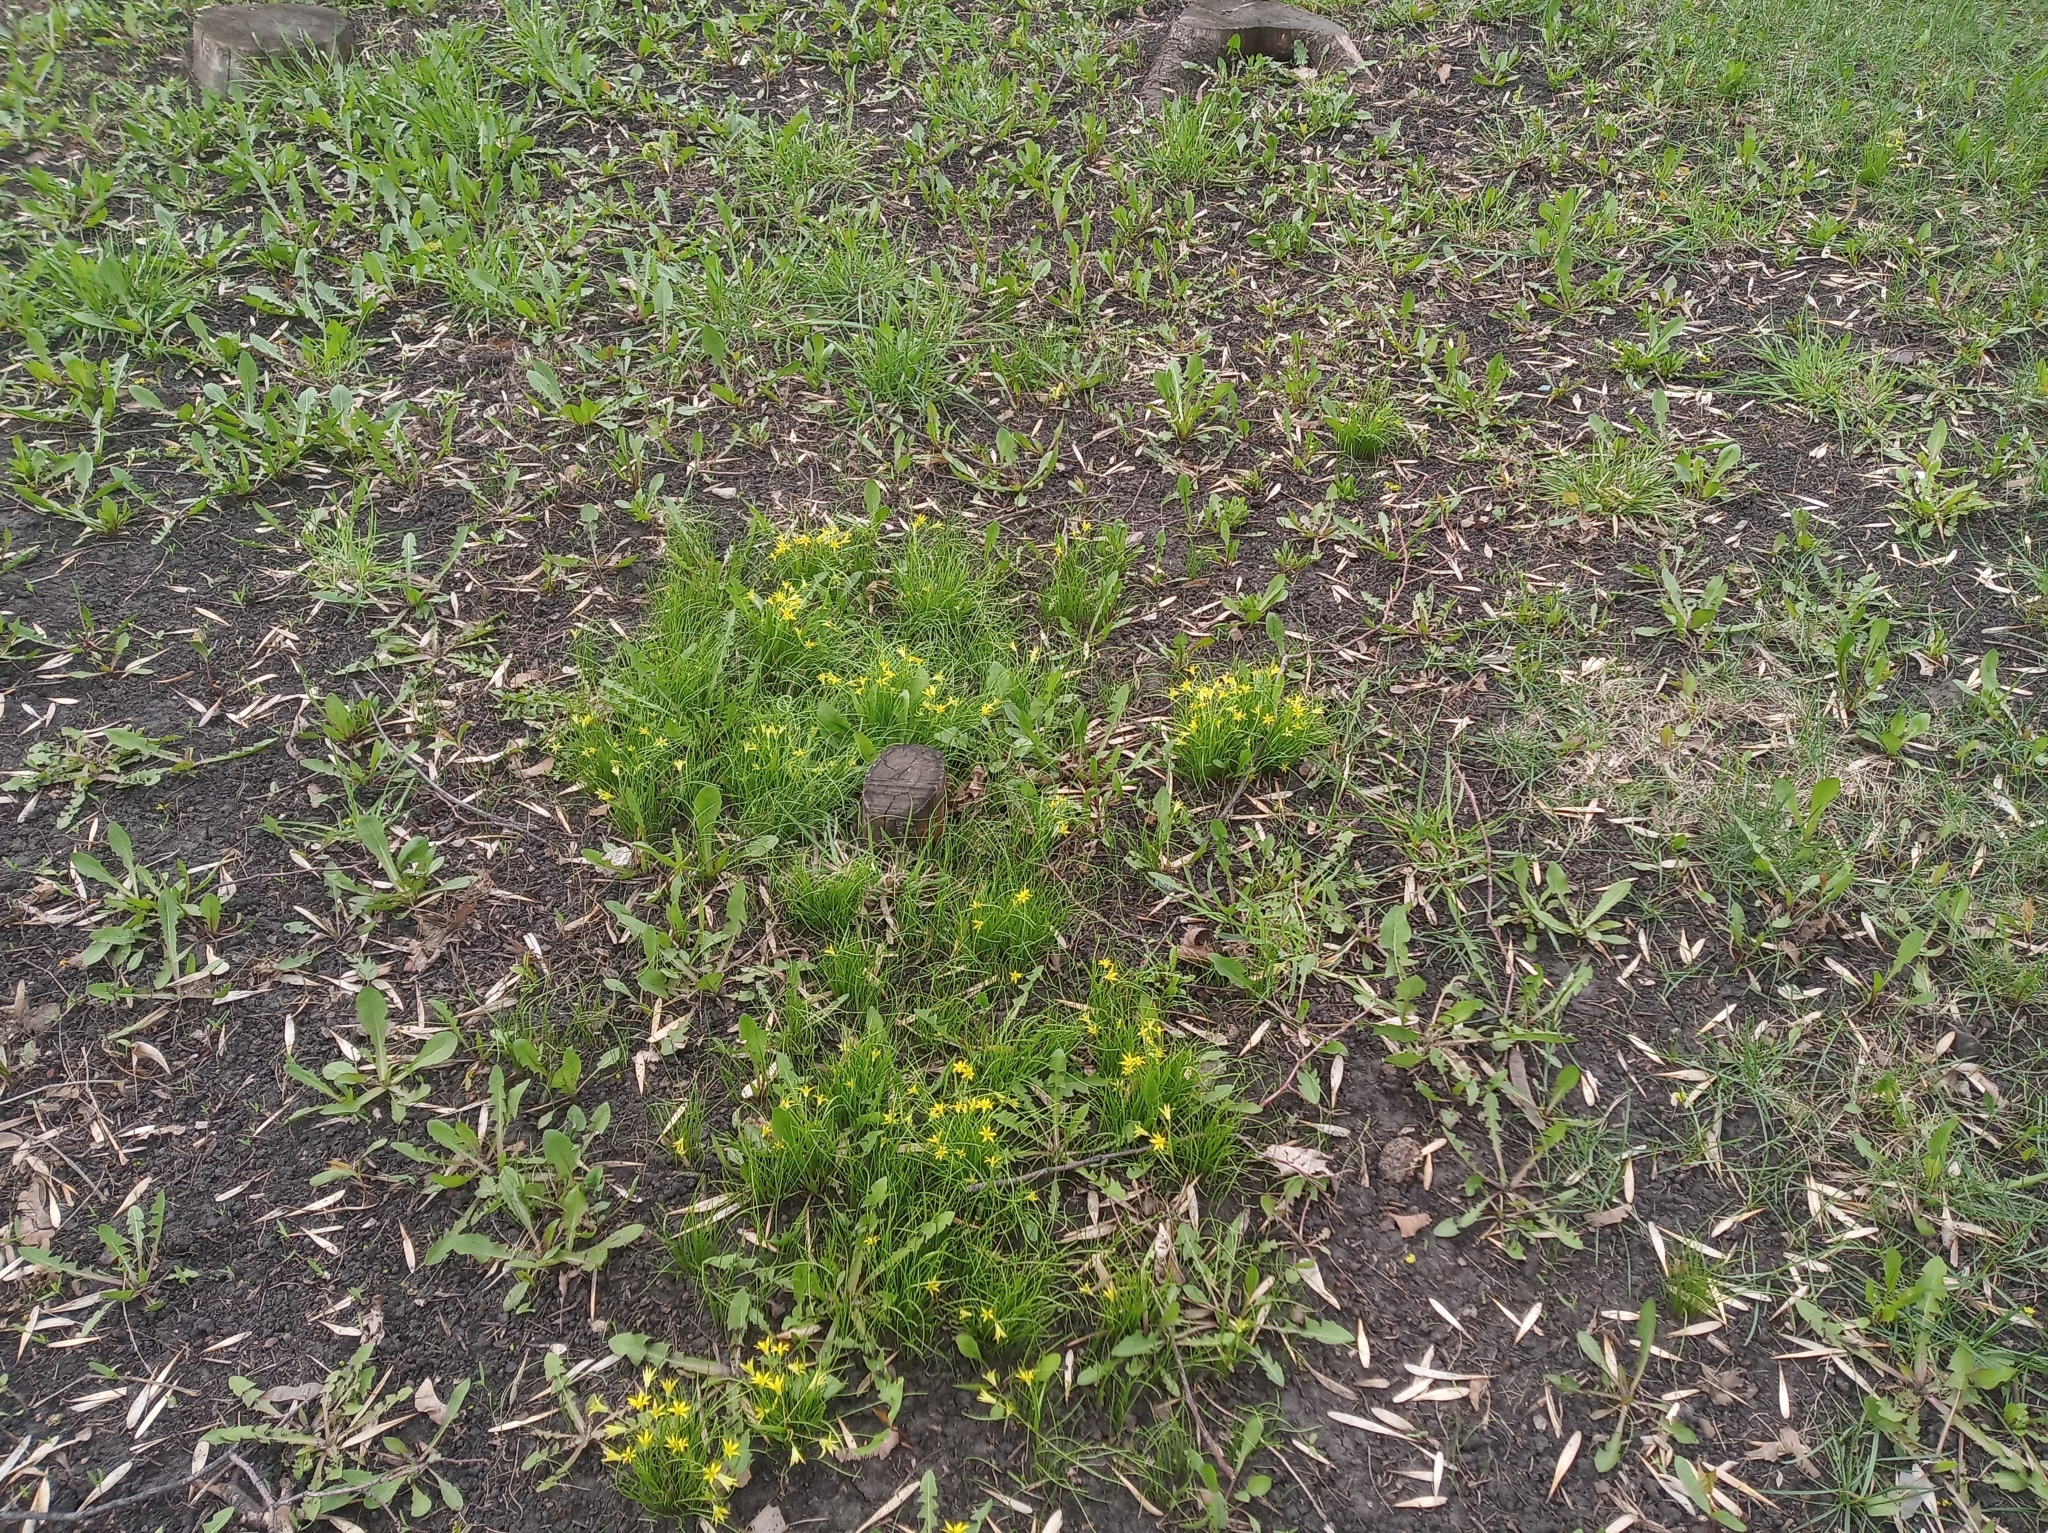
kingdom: Plantae
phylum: Tracheophyta
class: Liliopsida
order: Liliales
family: Liliaceae
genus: Gagea
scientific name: Gagea minima
